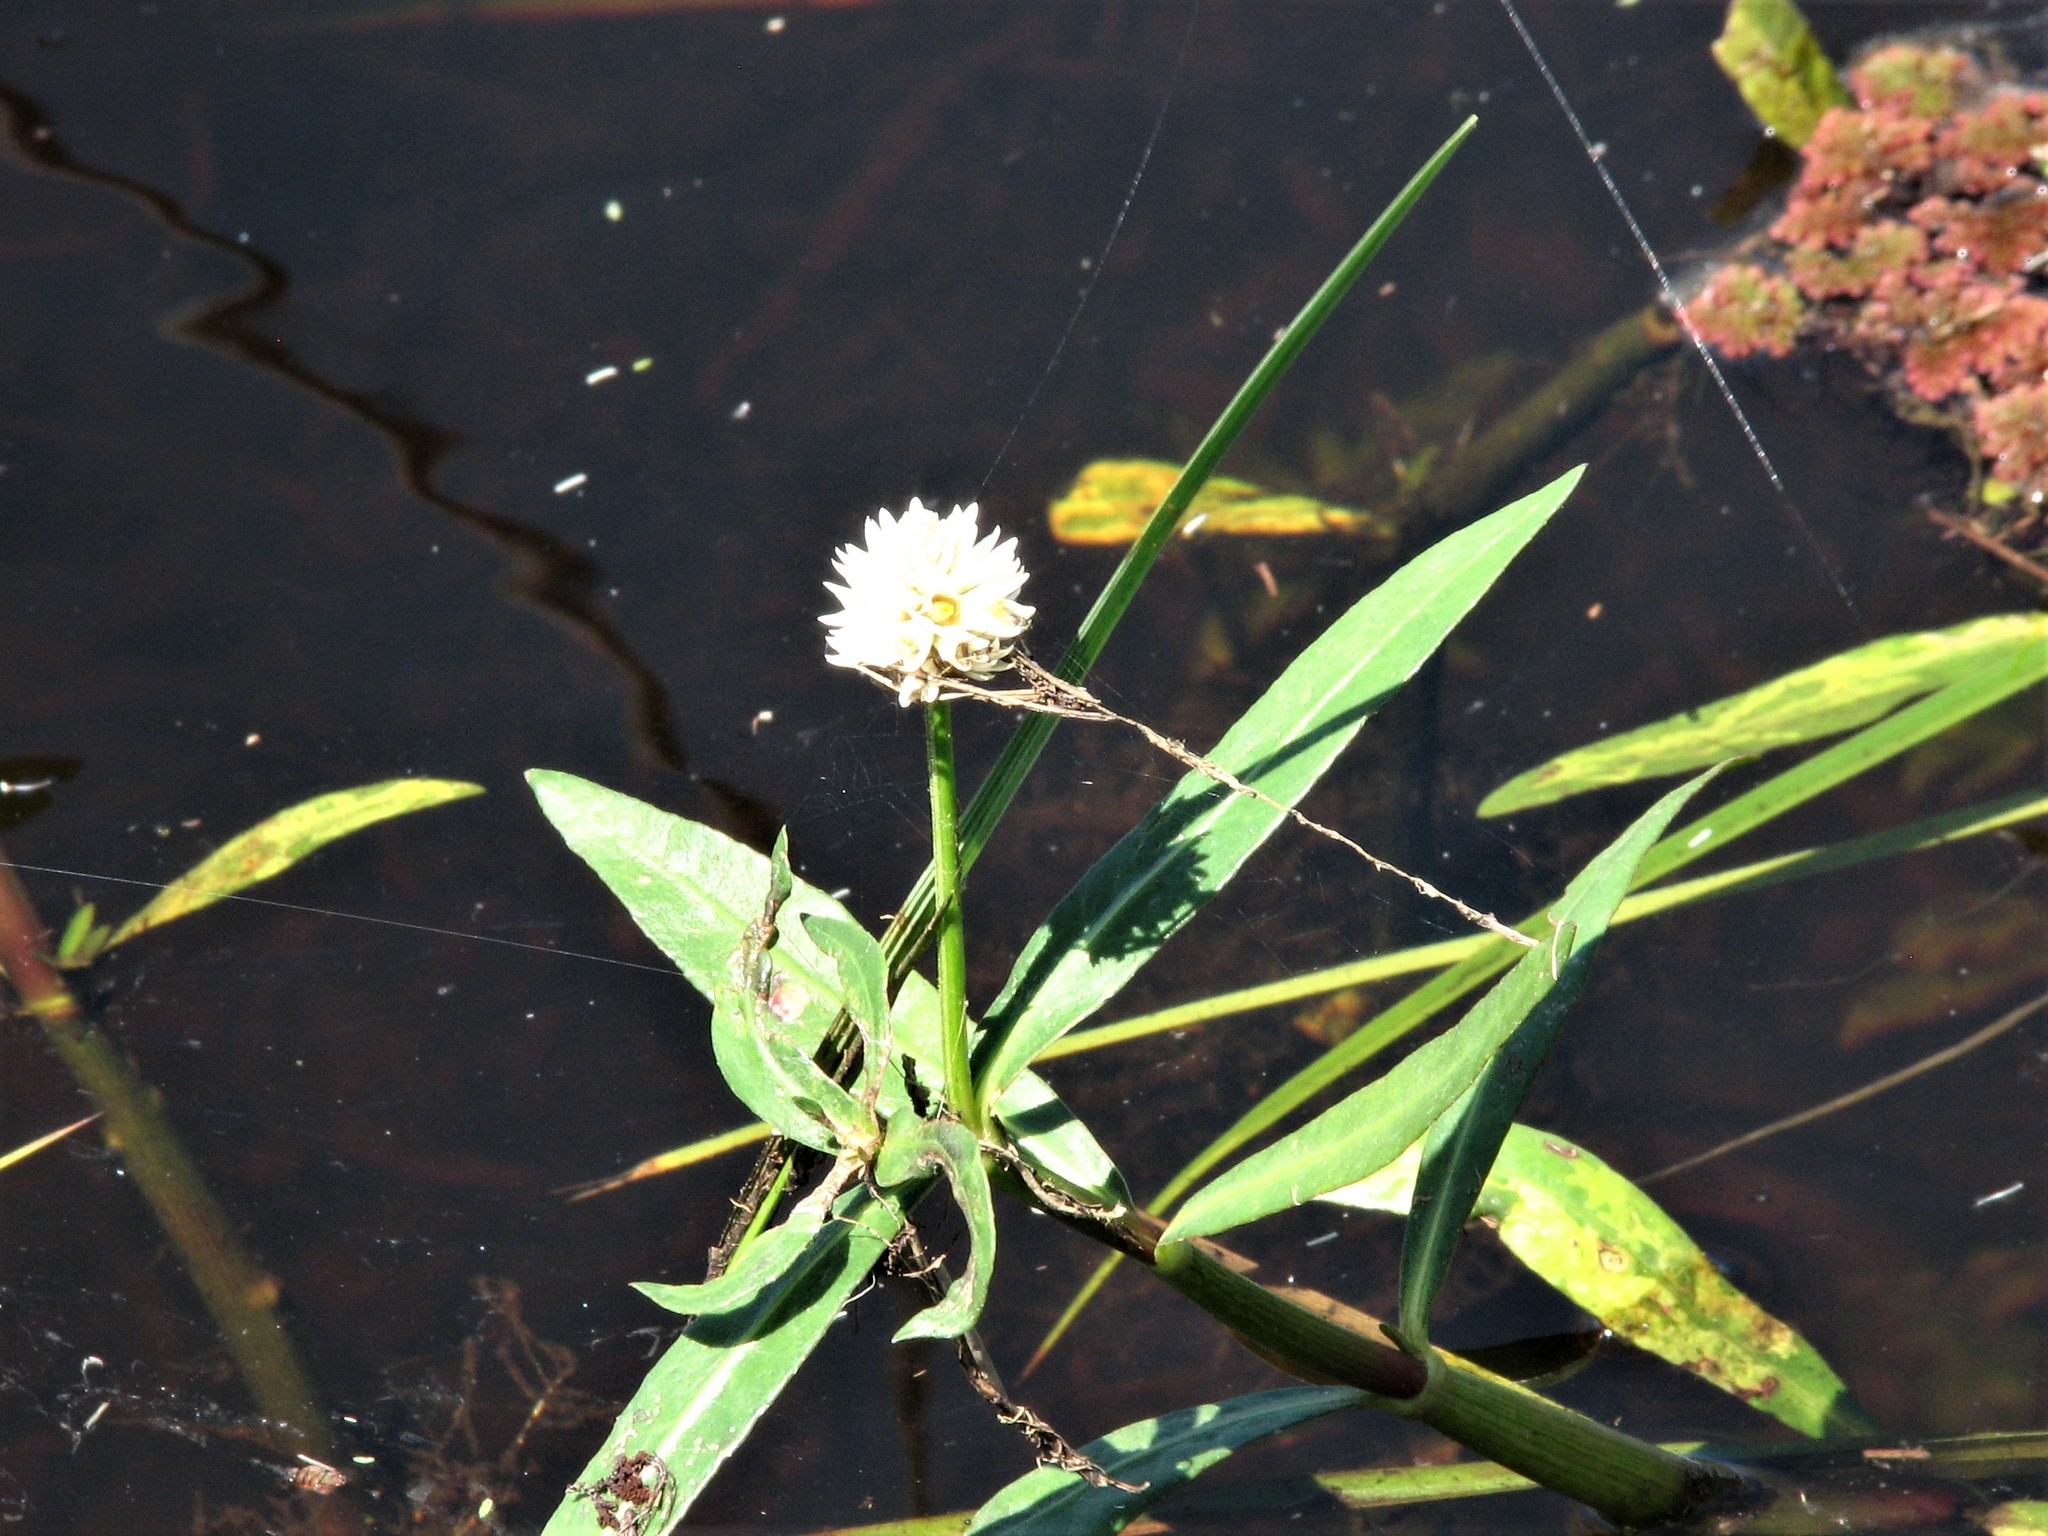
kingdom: Plantae
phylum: Tracheophyta
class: Magnoliopsida
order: Caryophyllales
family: Amaranthaceae
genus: Alternanthera
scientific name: Alternanthera philoxeroides
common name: Alligatorweed
